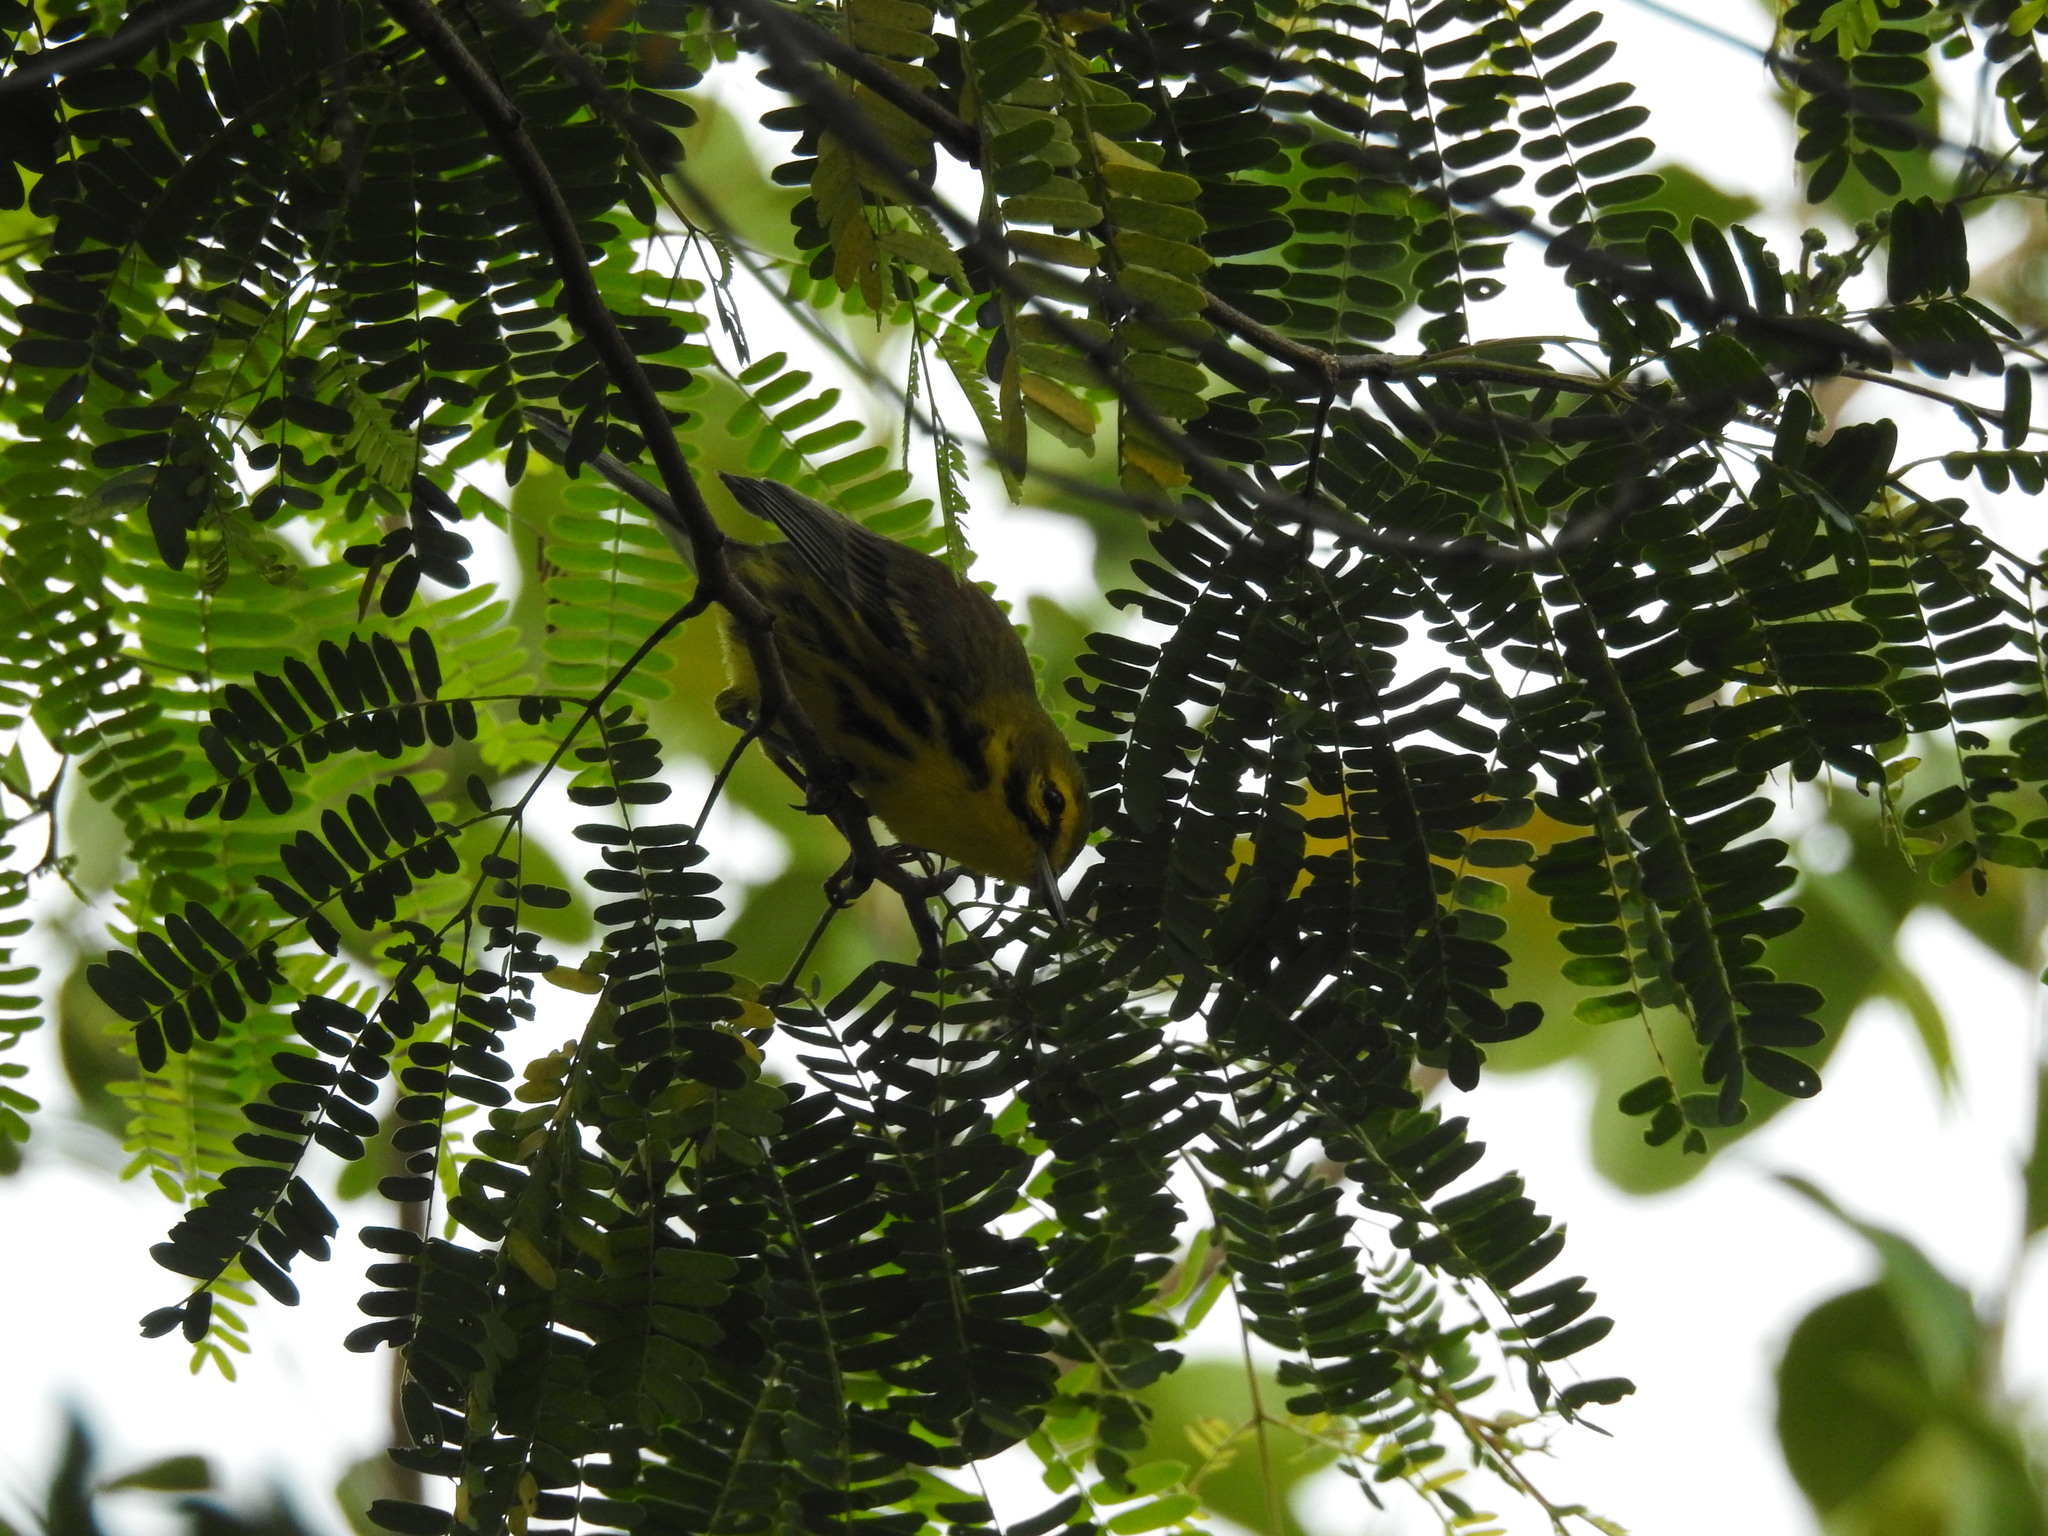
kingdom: Animalia
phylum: Chordata
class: Aves
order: Passeriformes
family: Parulidae
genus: Setophaga
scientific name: Setophaga discolor
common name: Prairie warbler
